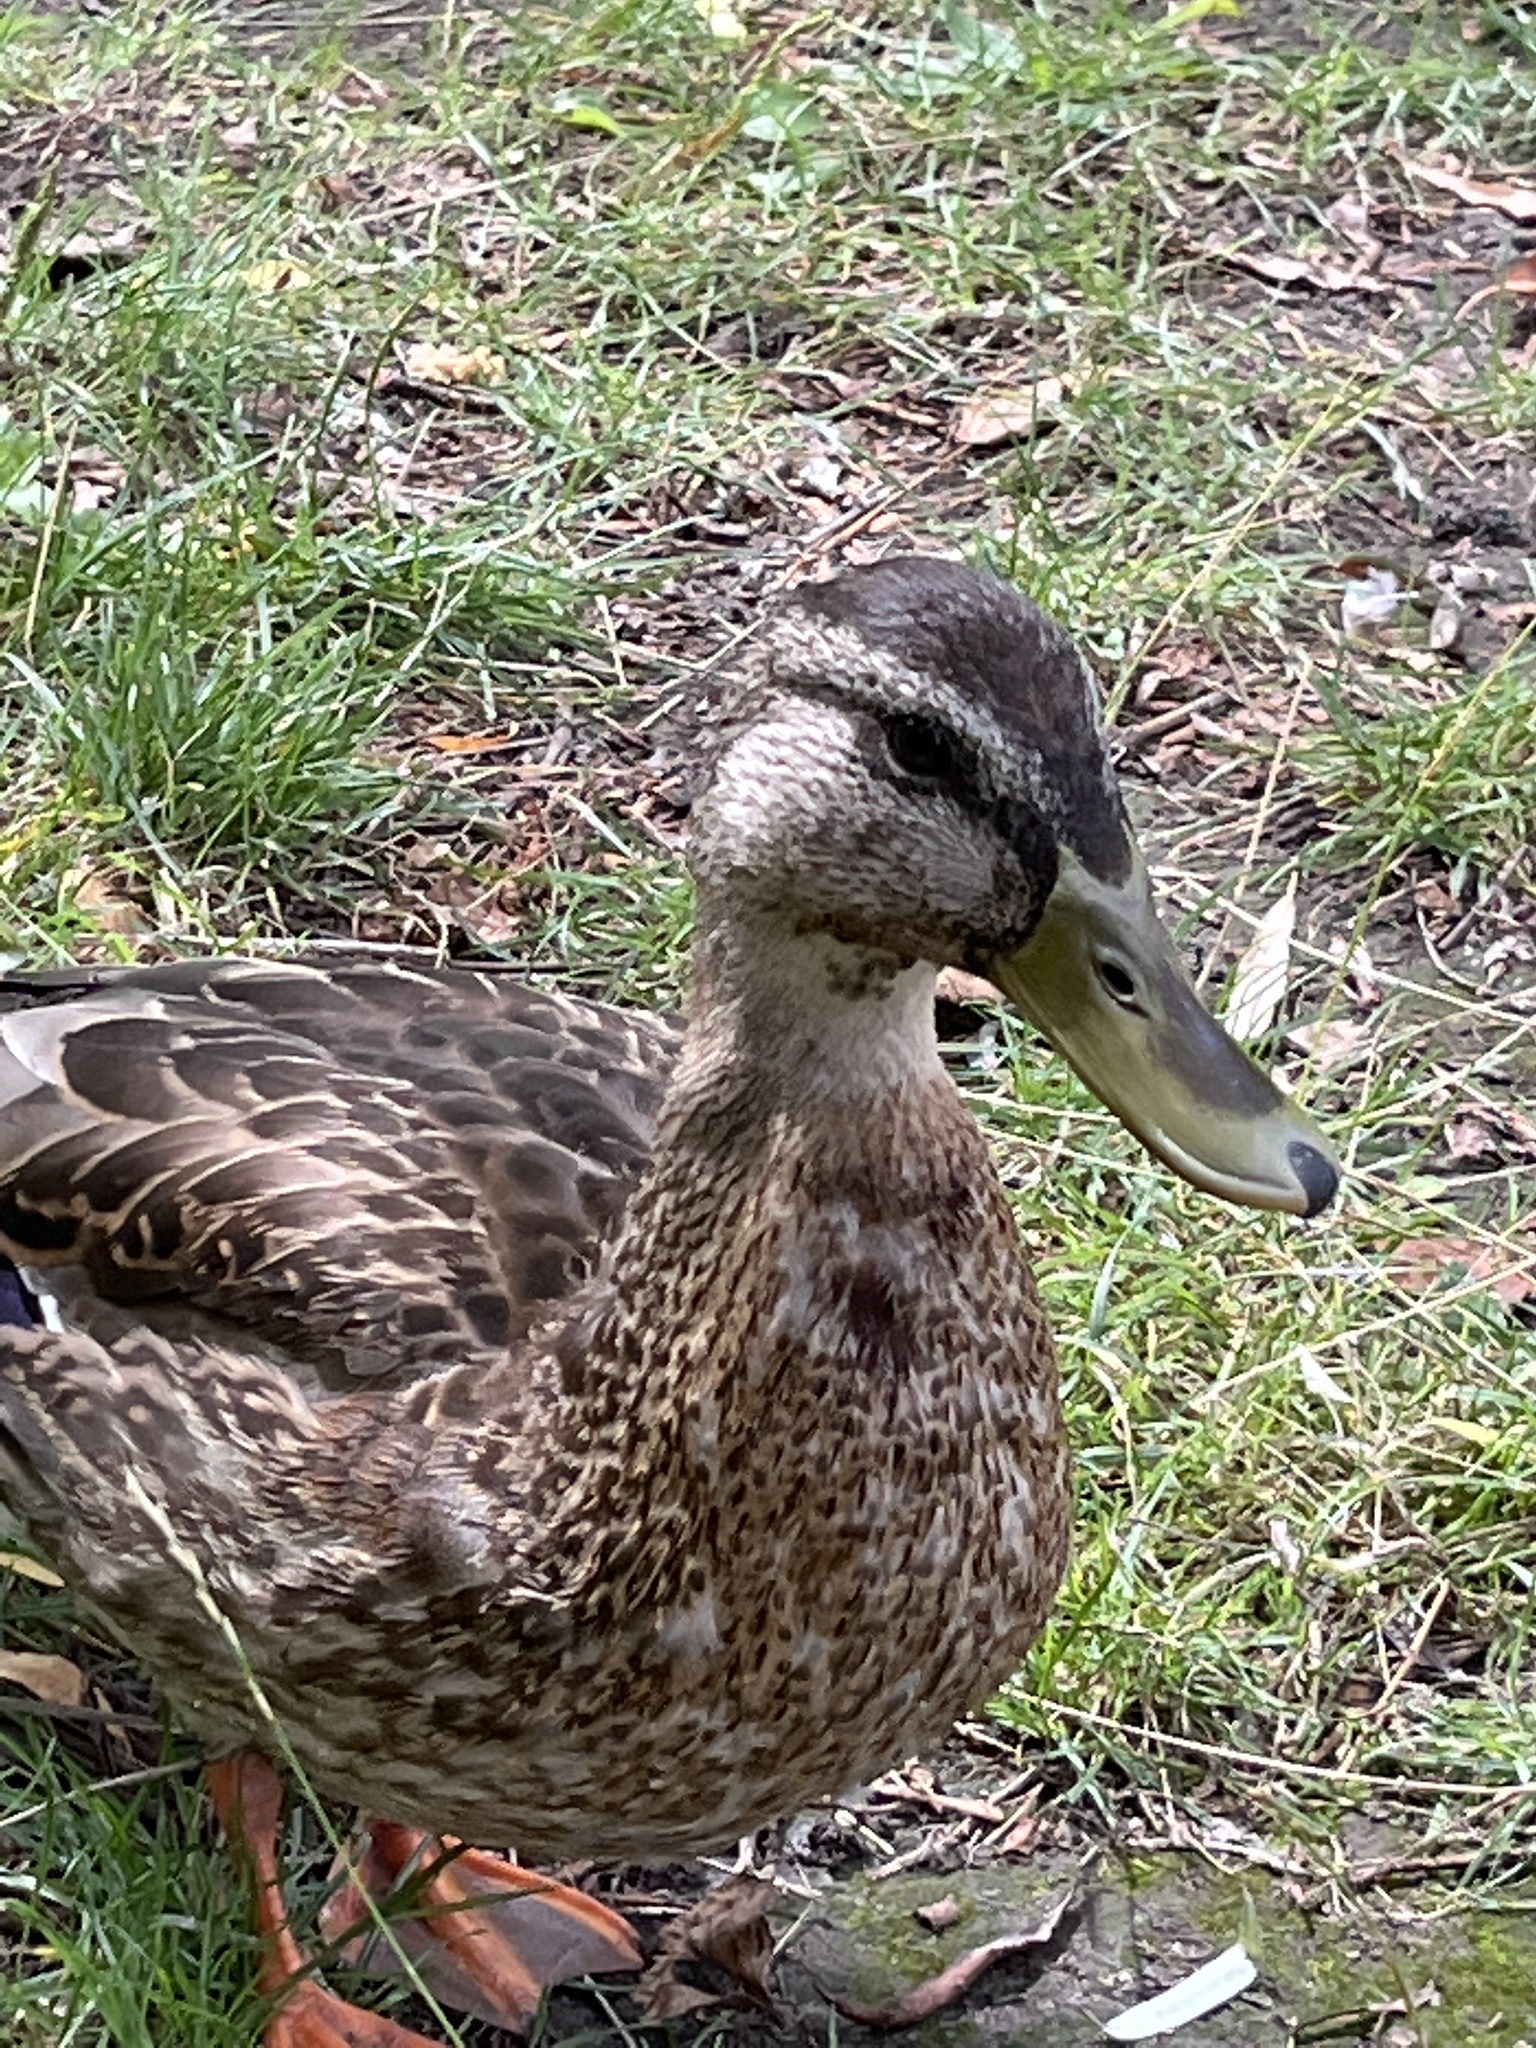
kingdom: Animalia
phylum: Chordata
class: Aves
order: Anseriformes
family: Anatidae
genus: Anas
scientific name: Anas platyrhynchos
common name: Mallard
